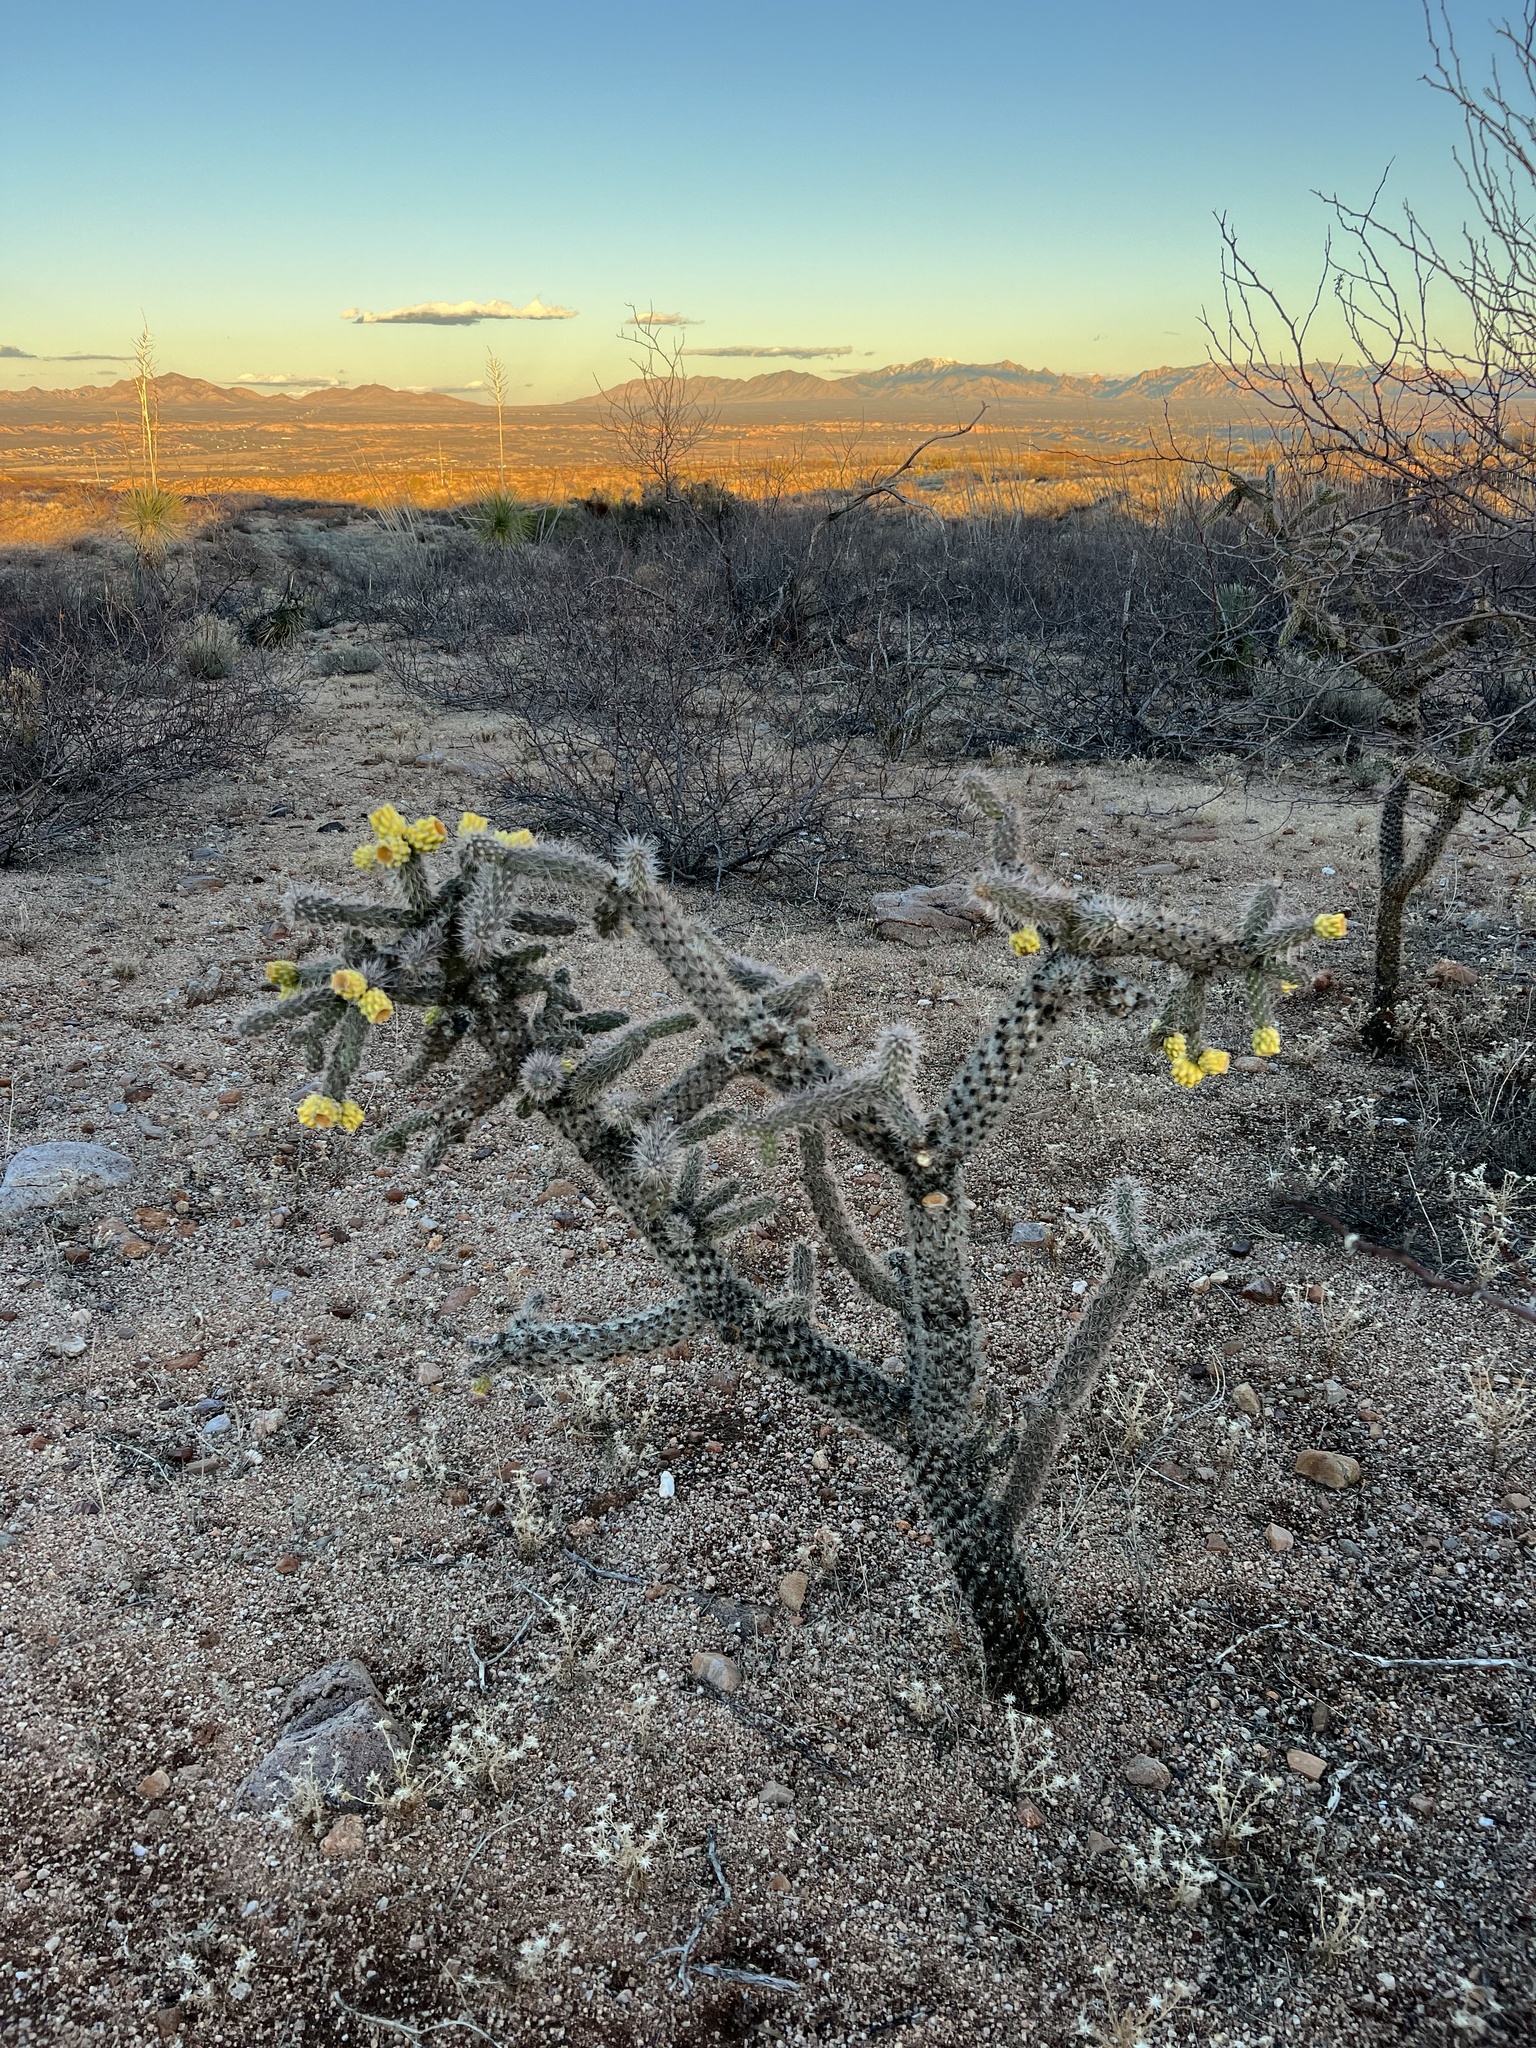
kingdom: Plantae
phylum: Tracheophyta
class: Magnoliopsida
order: Caryophyllales
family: Cactaceae
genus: Cylindropuntia
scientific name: Cylindropuntia imbricata
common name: Candelabrum cactus
